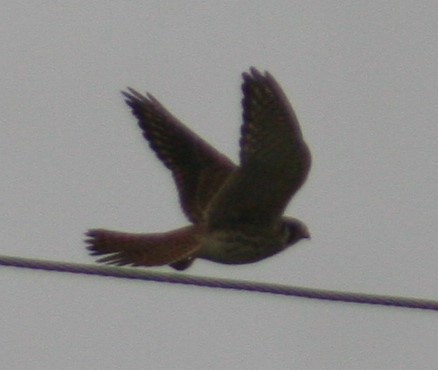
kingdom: Animalia
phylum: Chordata
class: Aves
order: Falconiformes
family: Falconidae
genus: Falco
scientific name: Falco sparverius
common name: American kestrel
